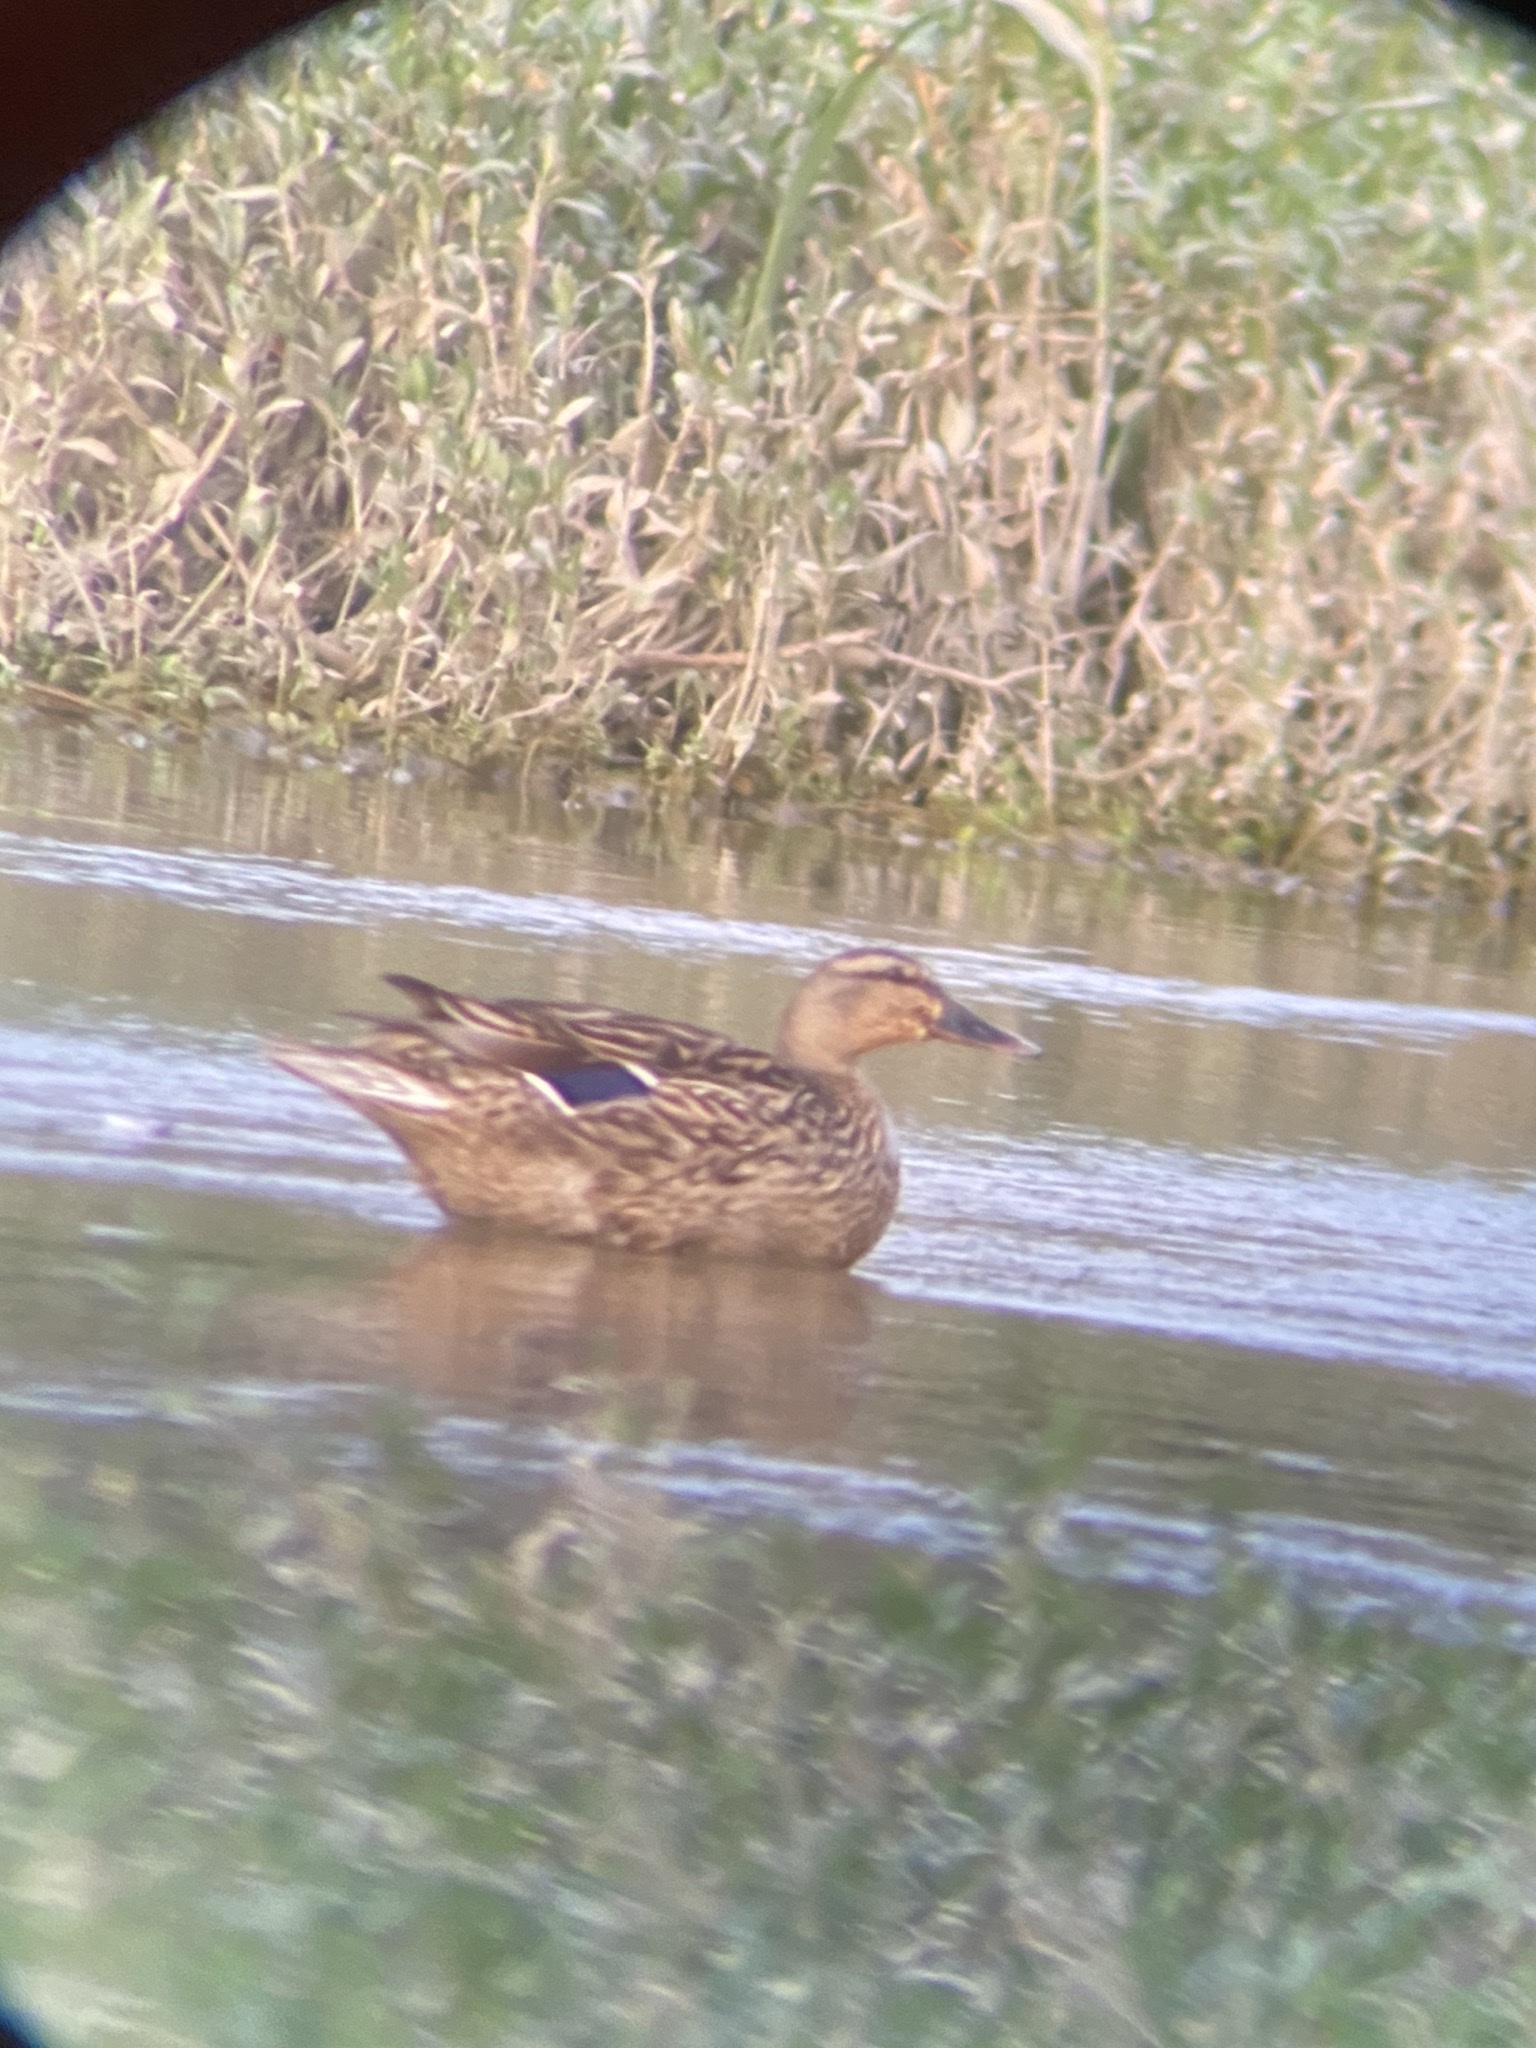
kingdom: Animalia
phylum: Chordata
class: Aves
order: Anseriformes
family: Anatidae
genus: Anas
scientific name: Anas platyrhynchos
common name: Mallard
